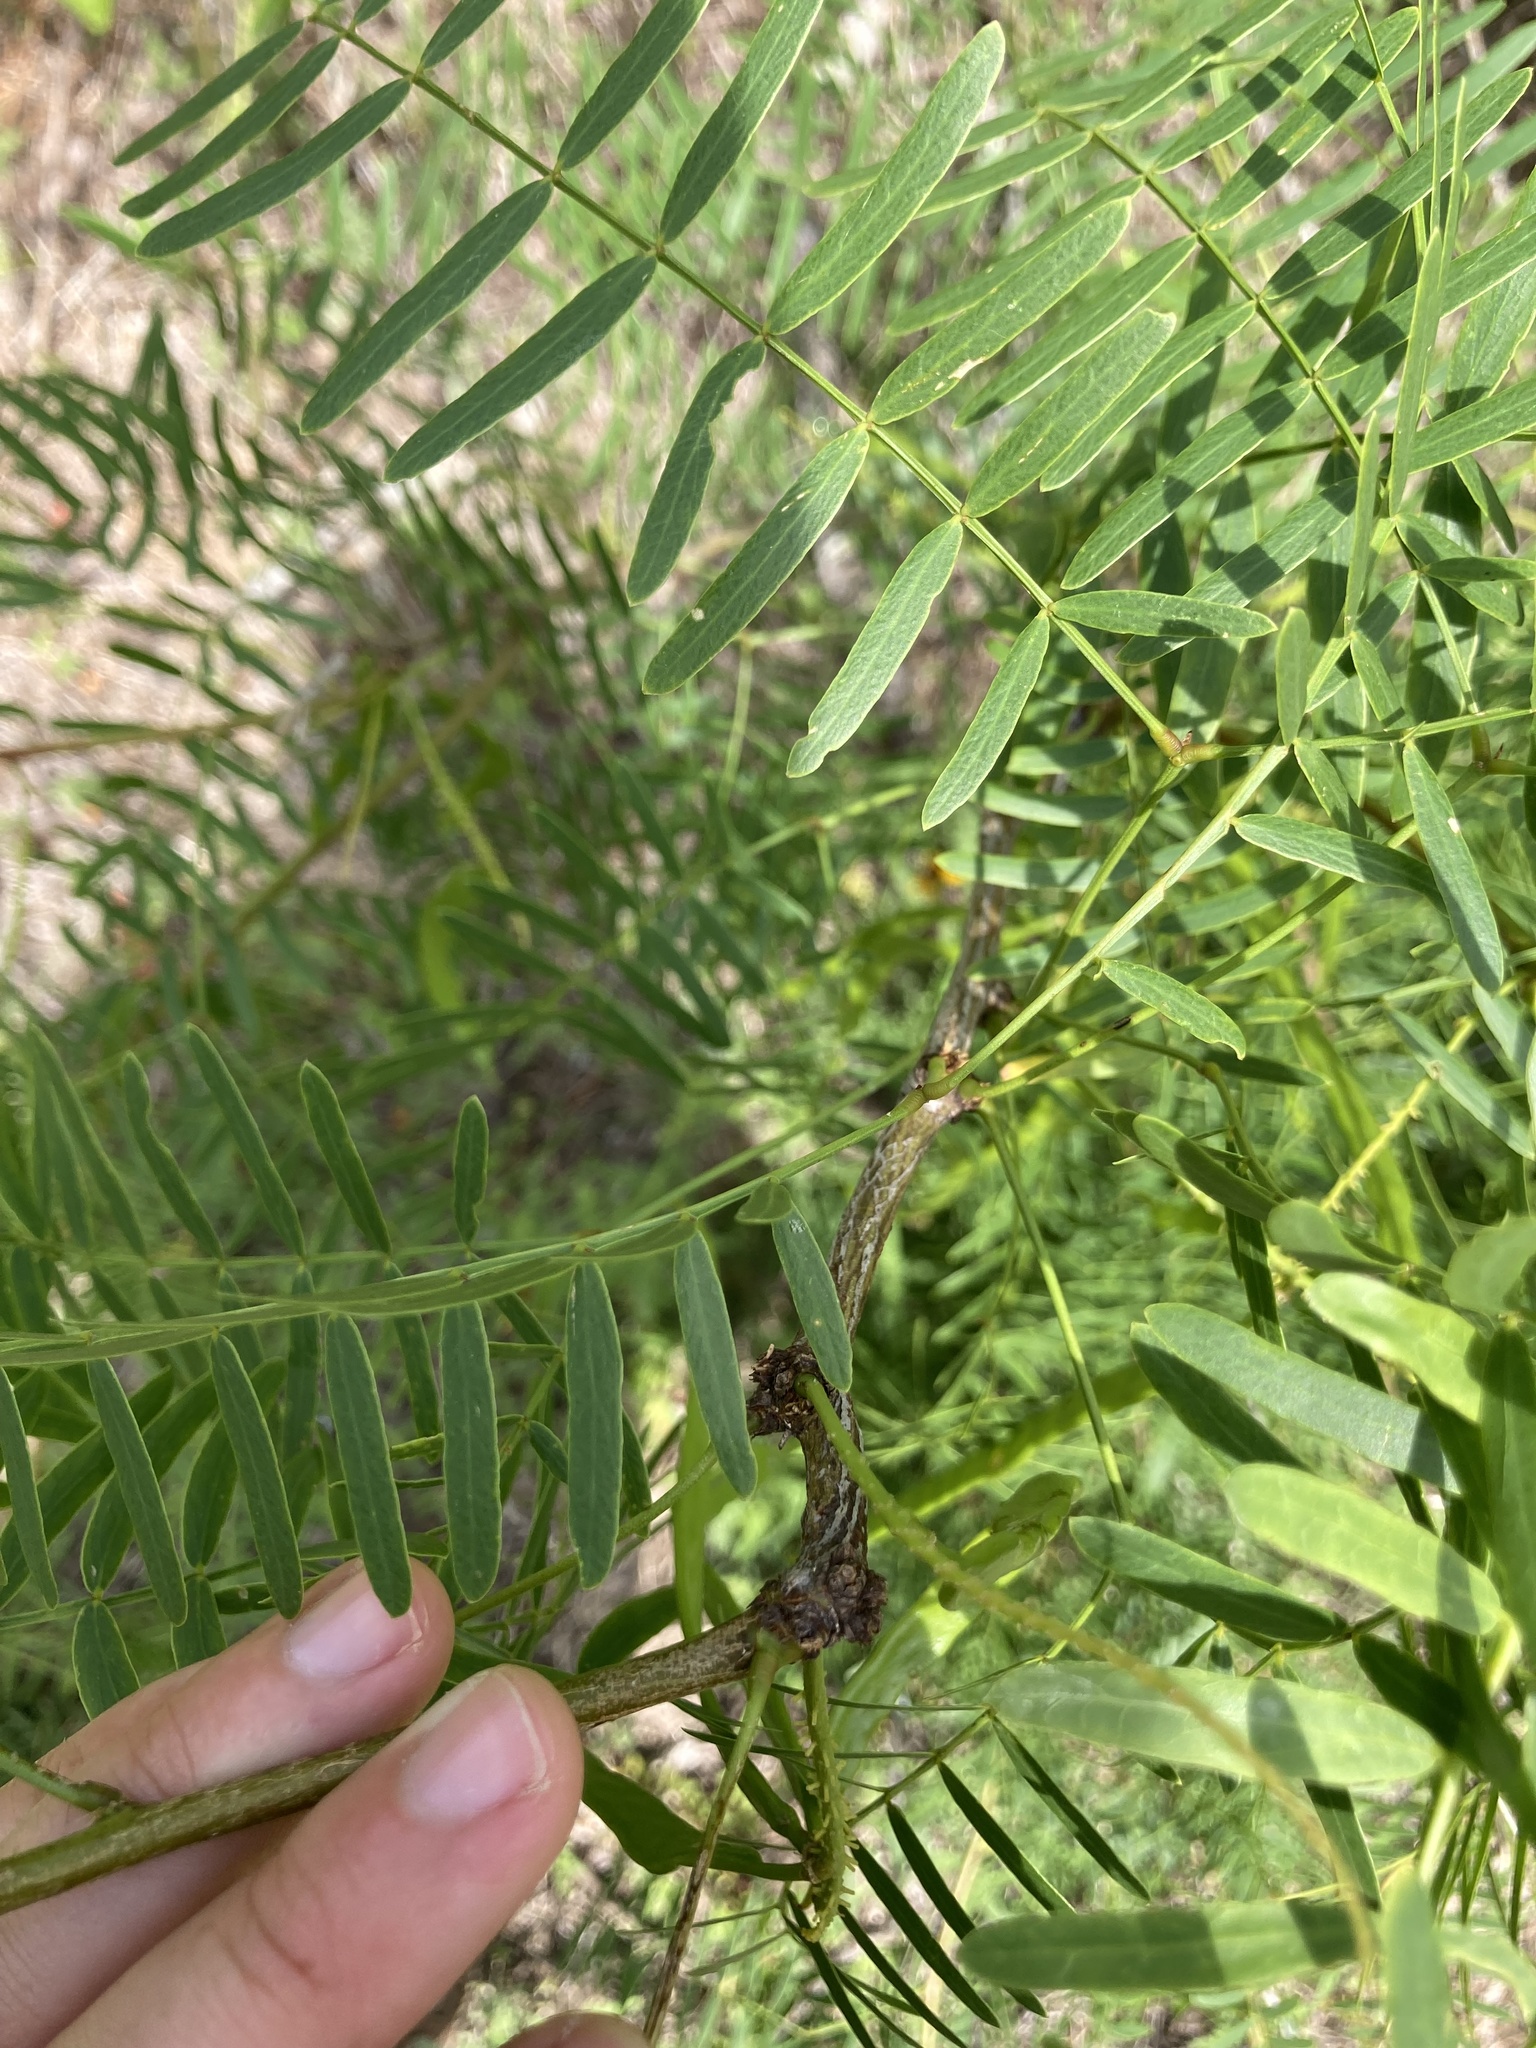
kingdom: Plantae
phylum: Tracheophyta
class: Magnoliopsida
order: Fabales
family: Fabaceae
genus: Prosopis
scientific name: Prosopis glandulosa
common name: Honey mesquite
